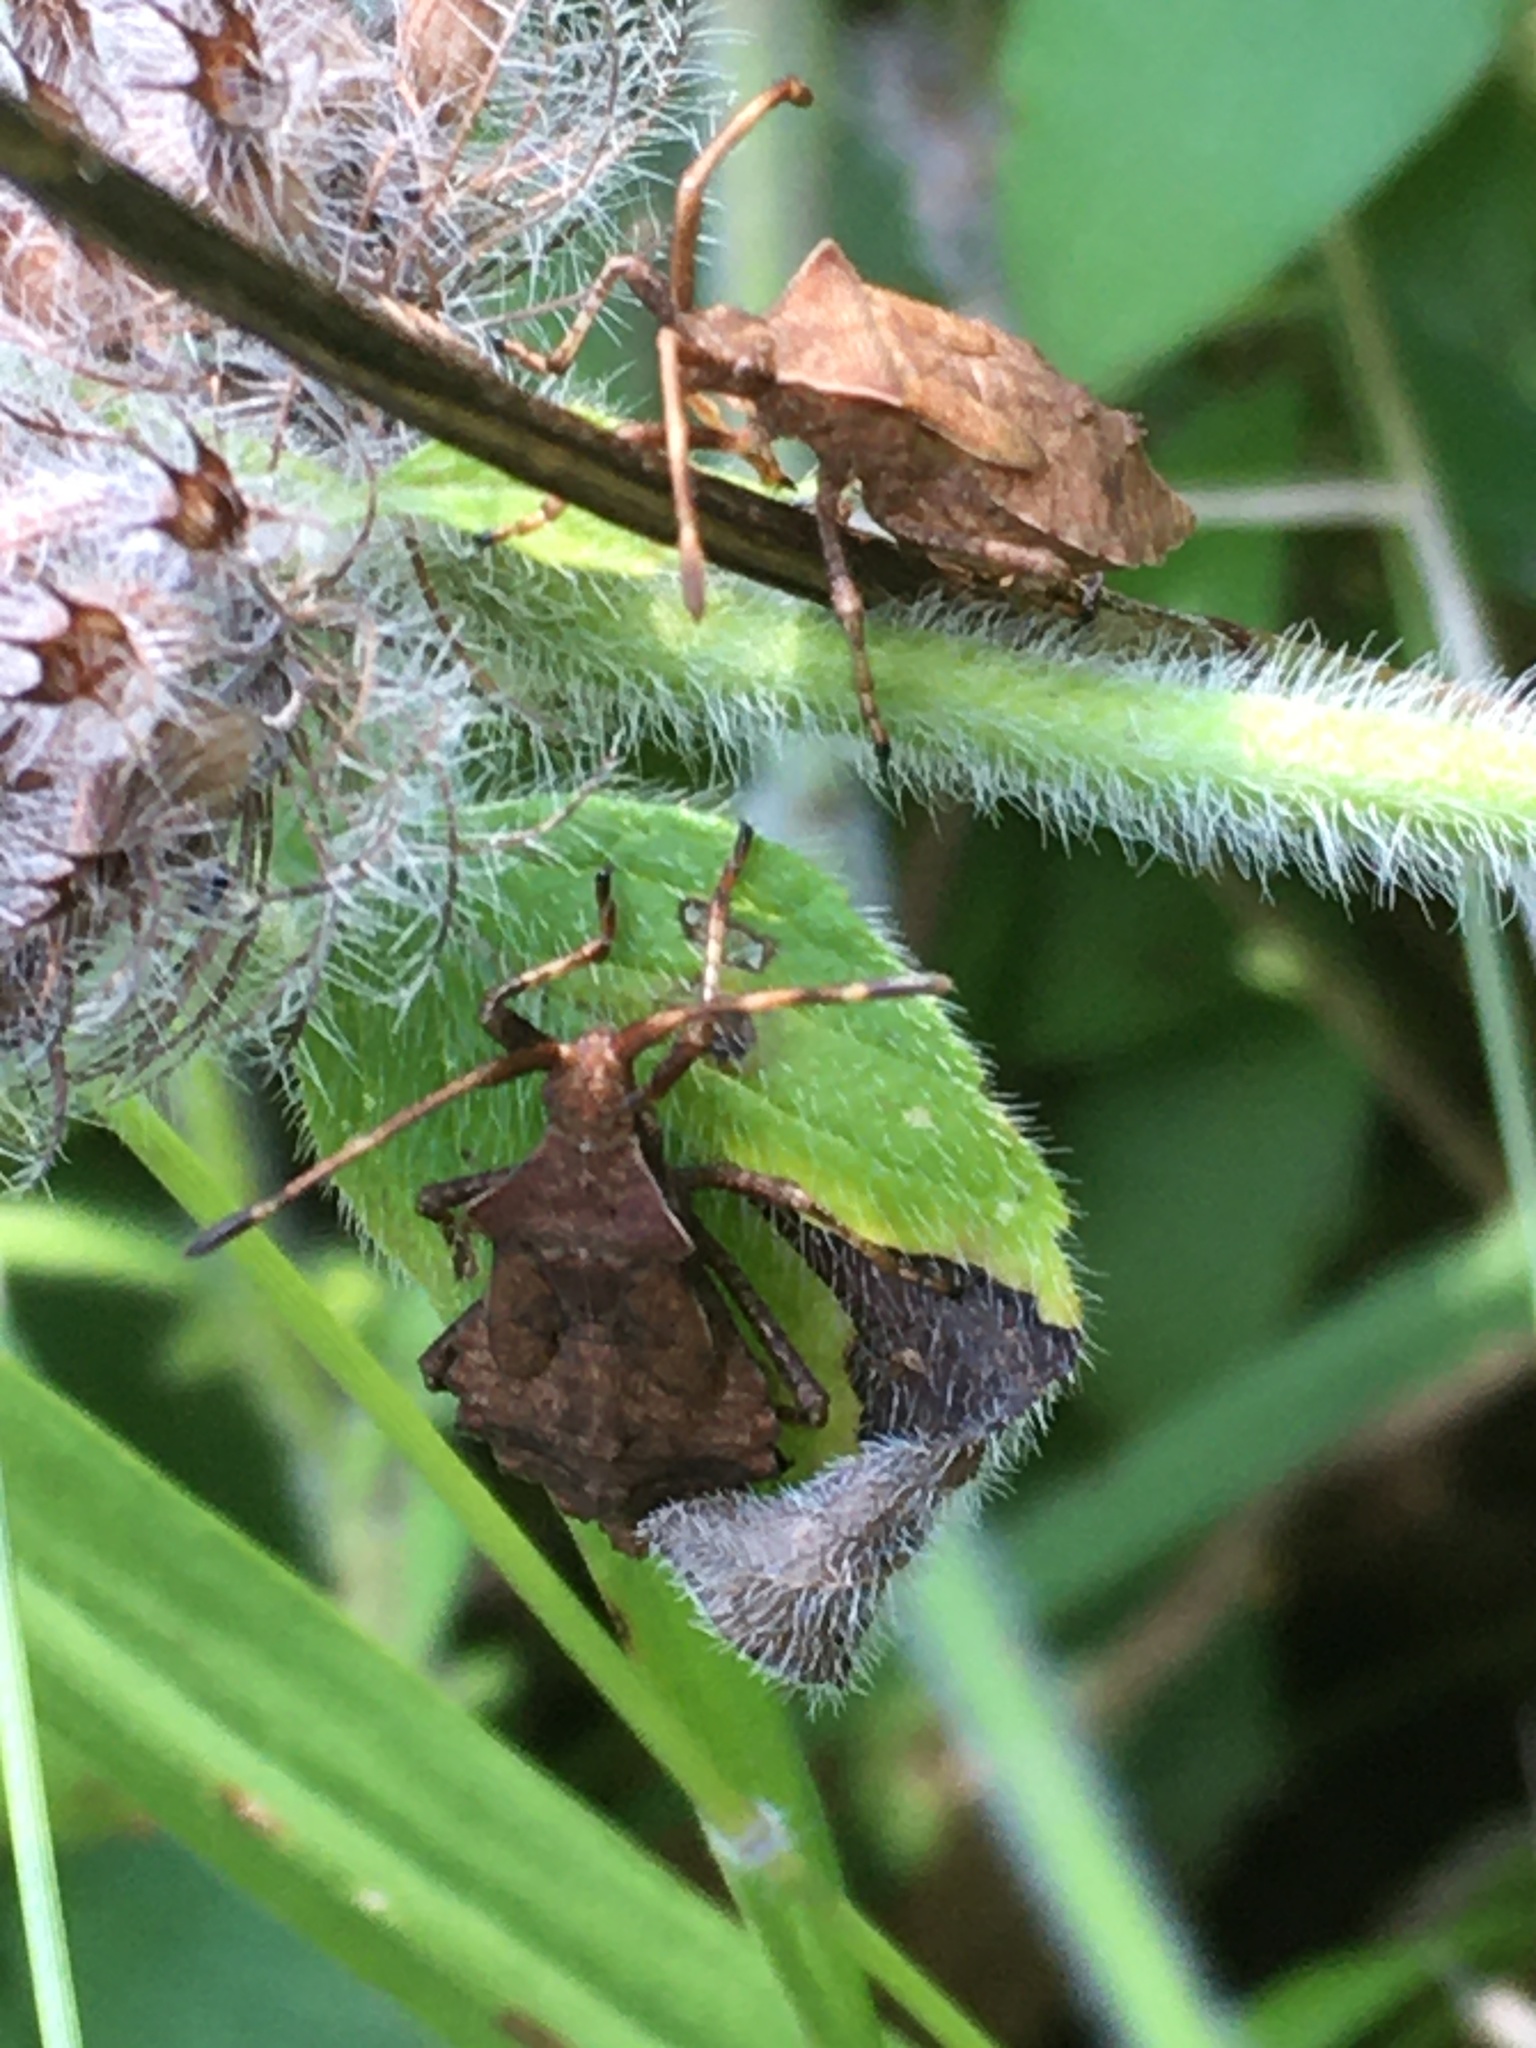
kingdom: Animalia
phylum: Arthropoda
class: Insecta
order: Hemiptera
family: Coreidae
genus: Coreus
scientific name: Coreus marginatus
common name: Dock bug
